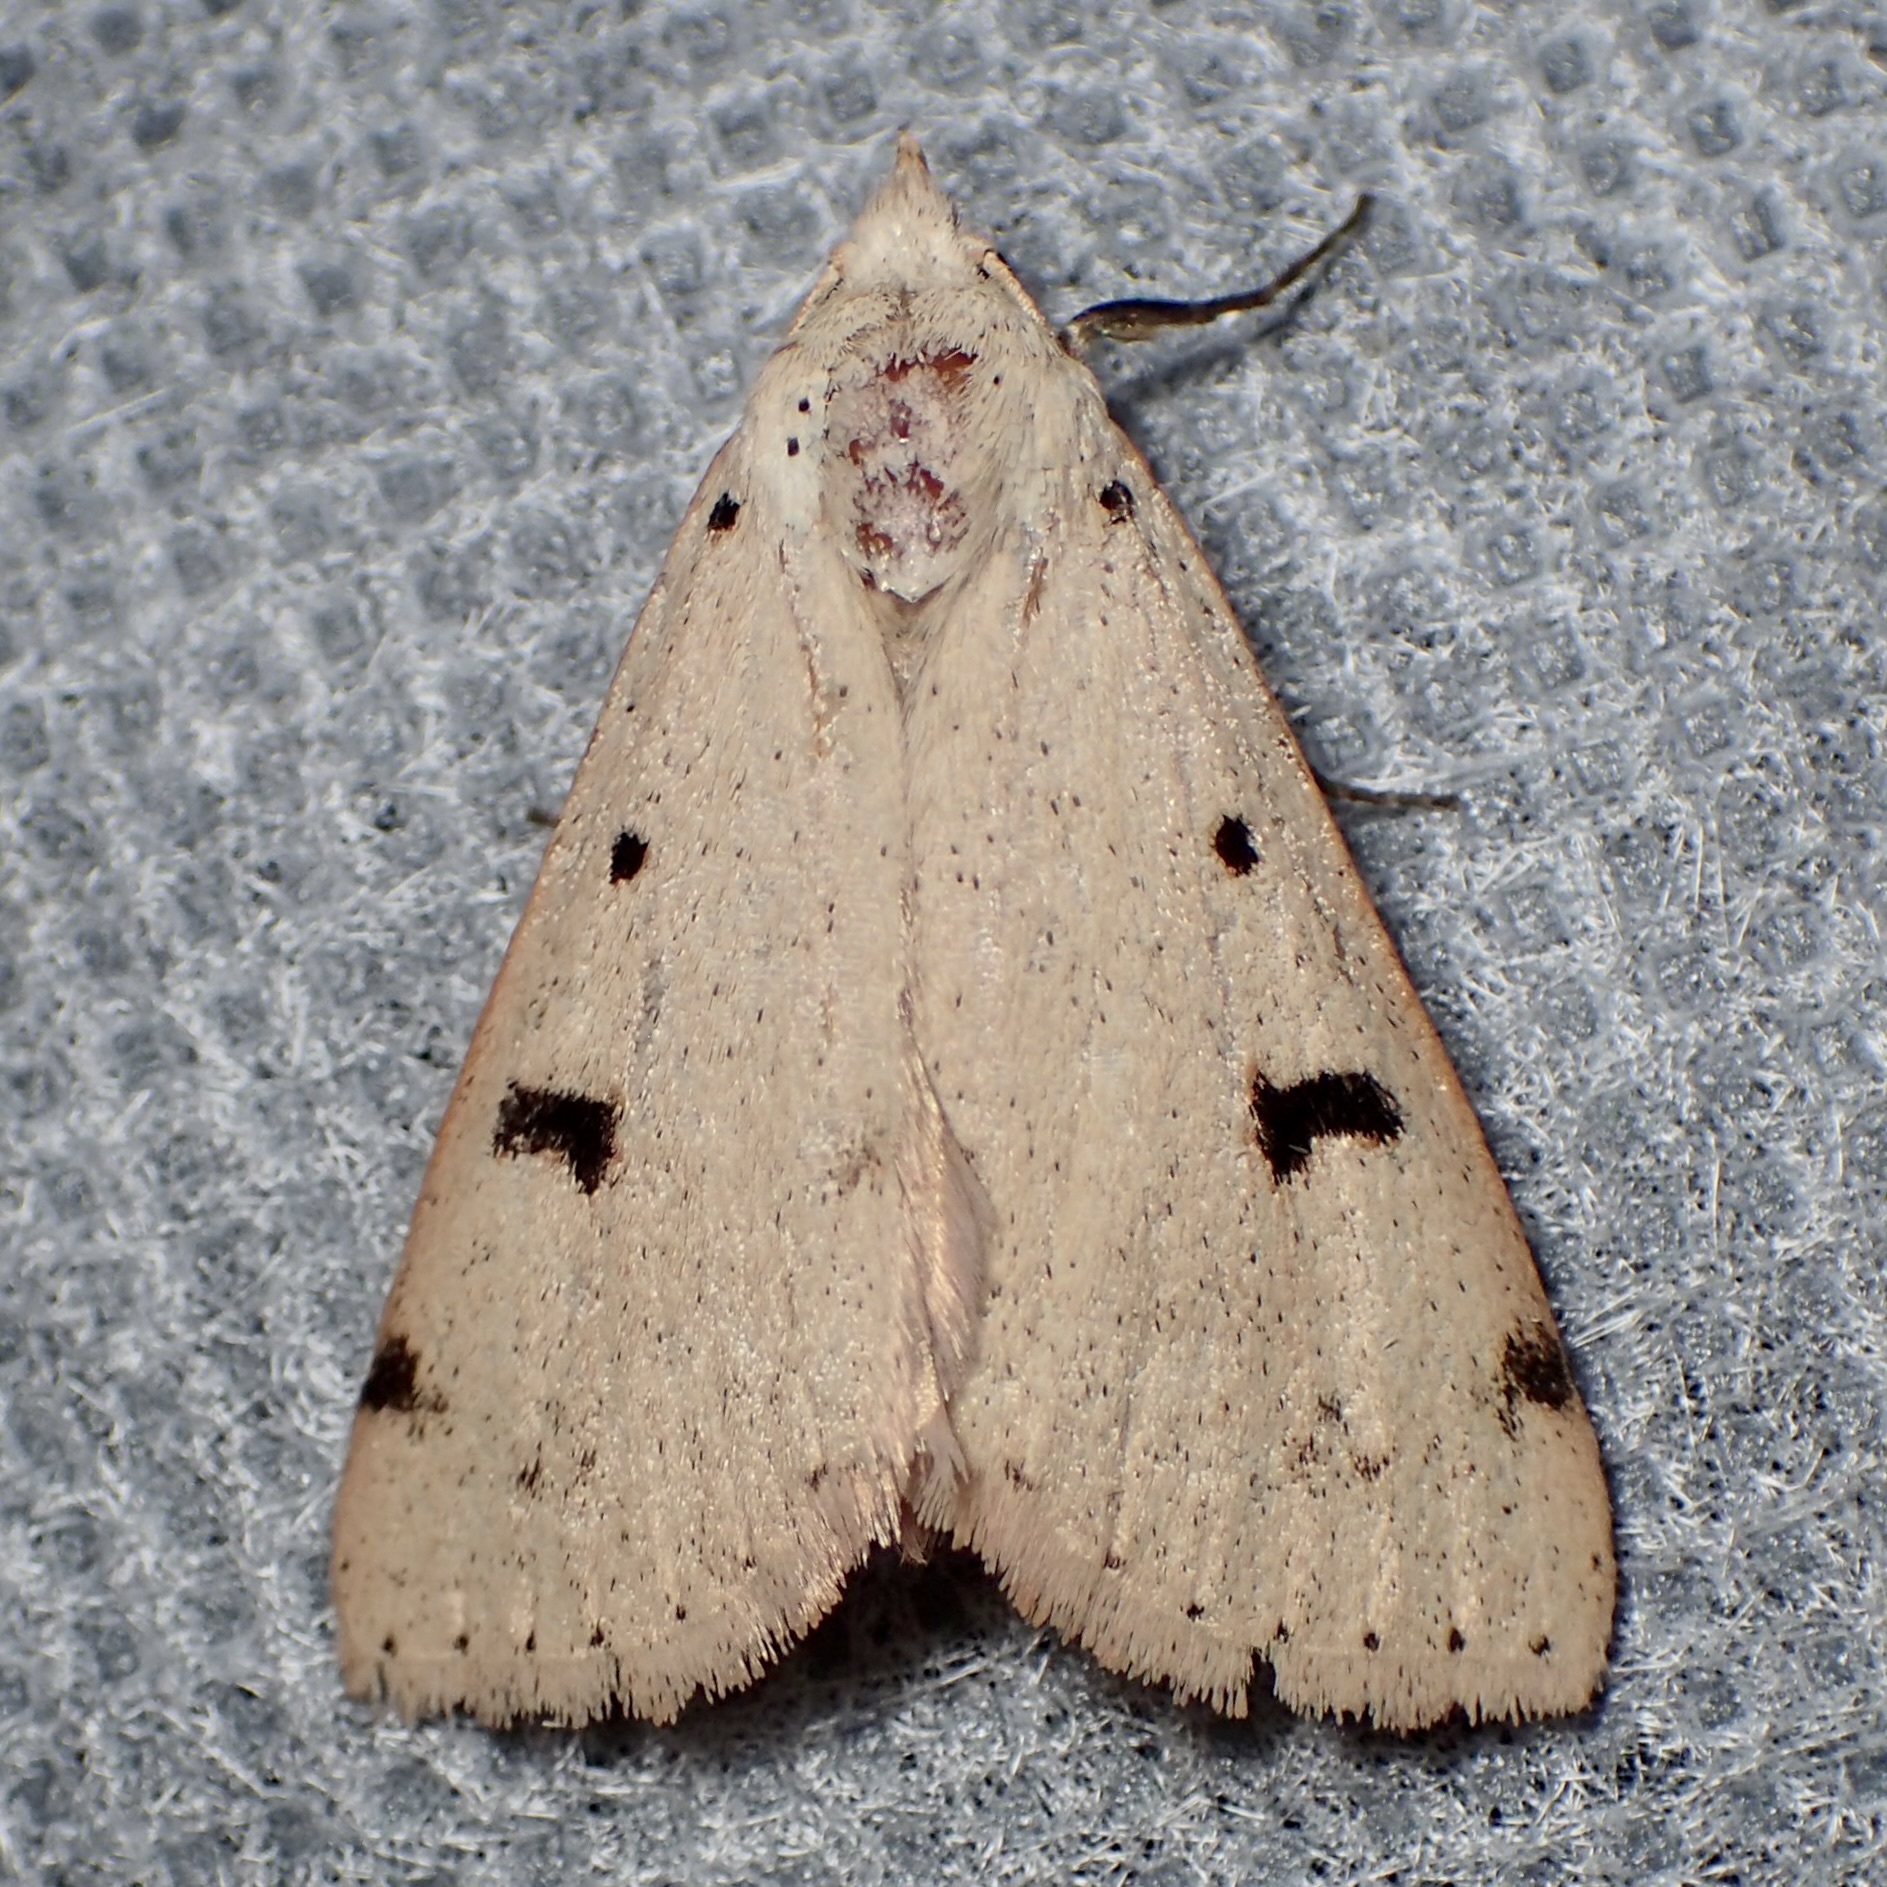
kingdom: Animalia
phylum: Arthropoda
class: Insecta
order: Lepidoptera
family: Erebidae
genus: Scolecocampa
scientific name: Scolecocampa atriluna
